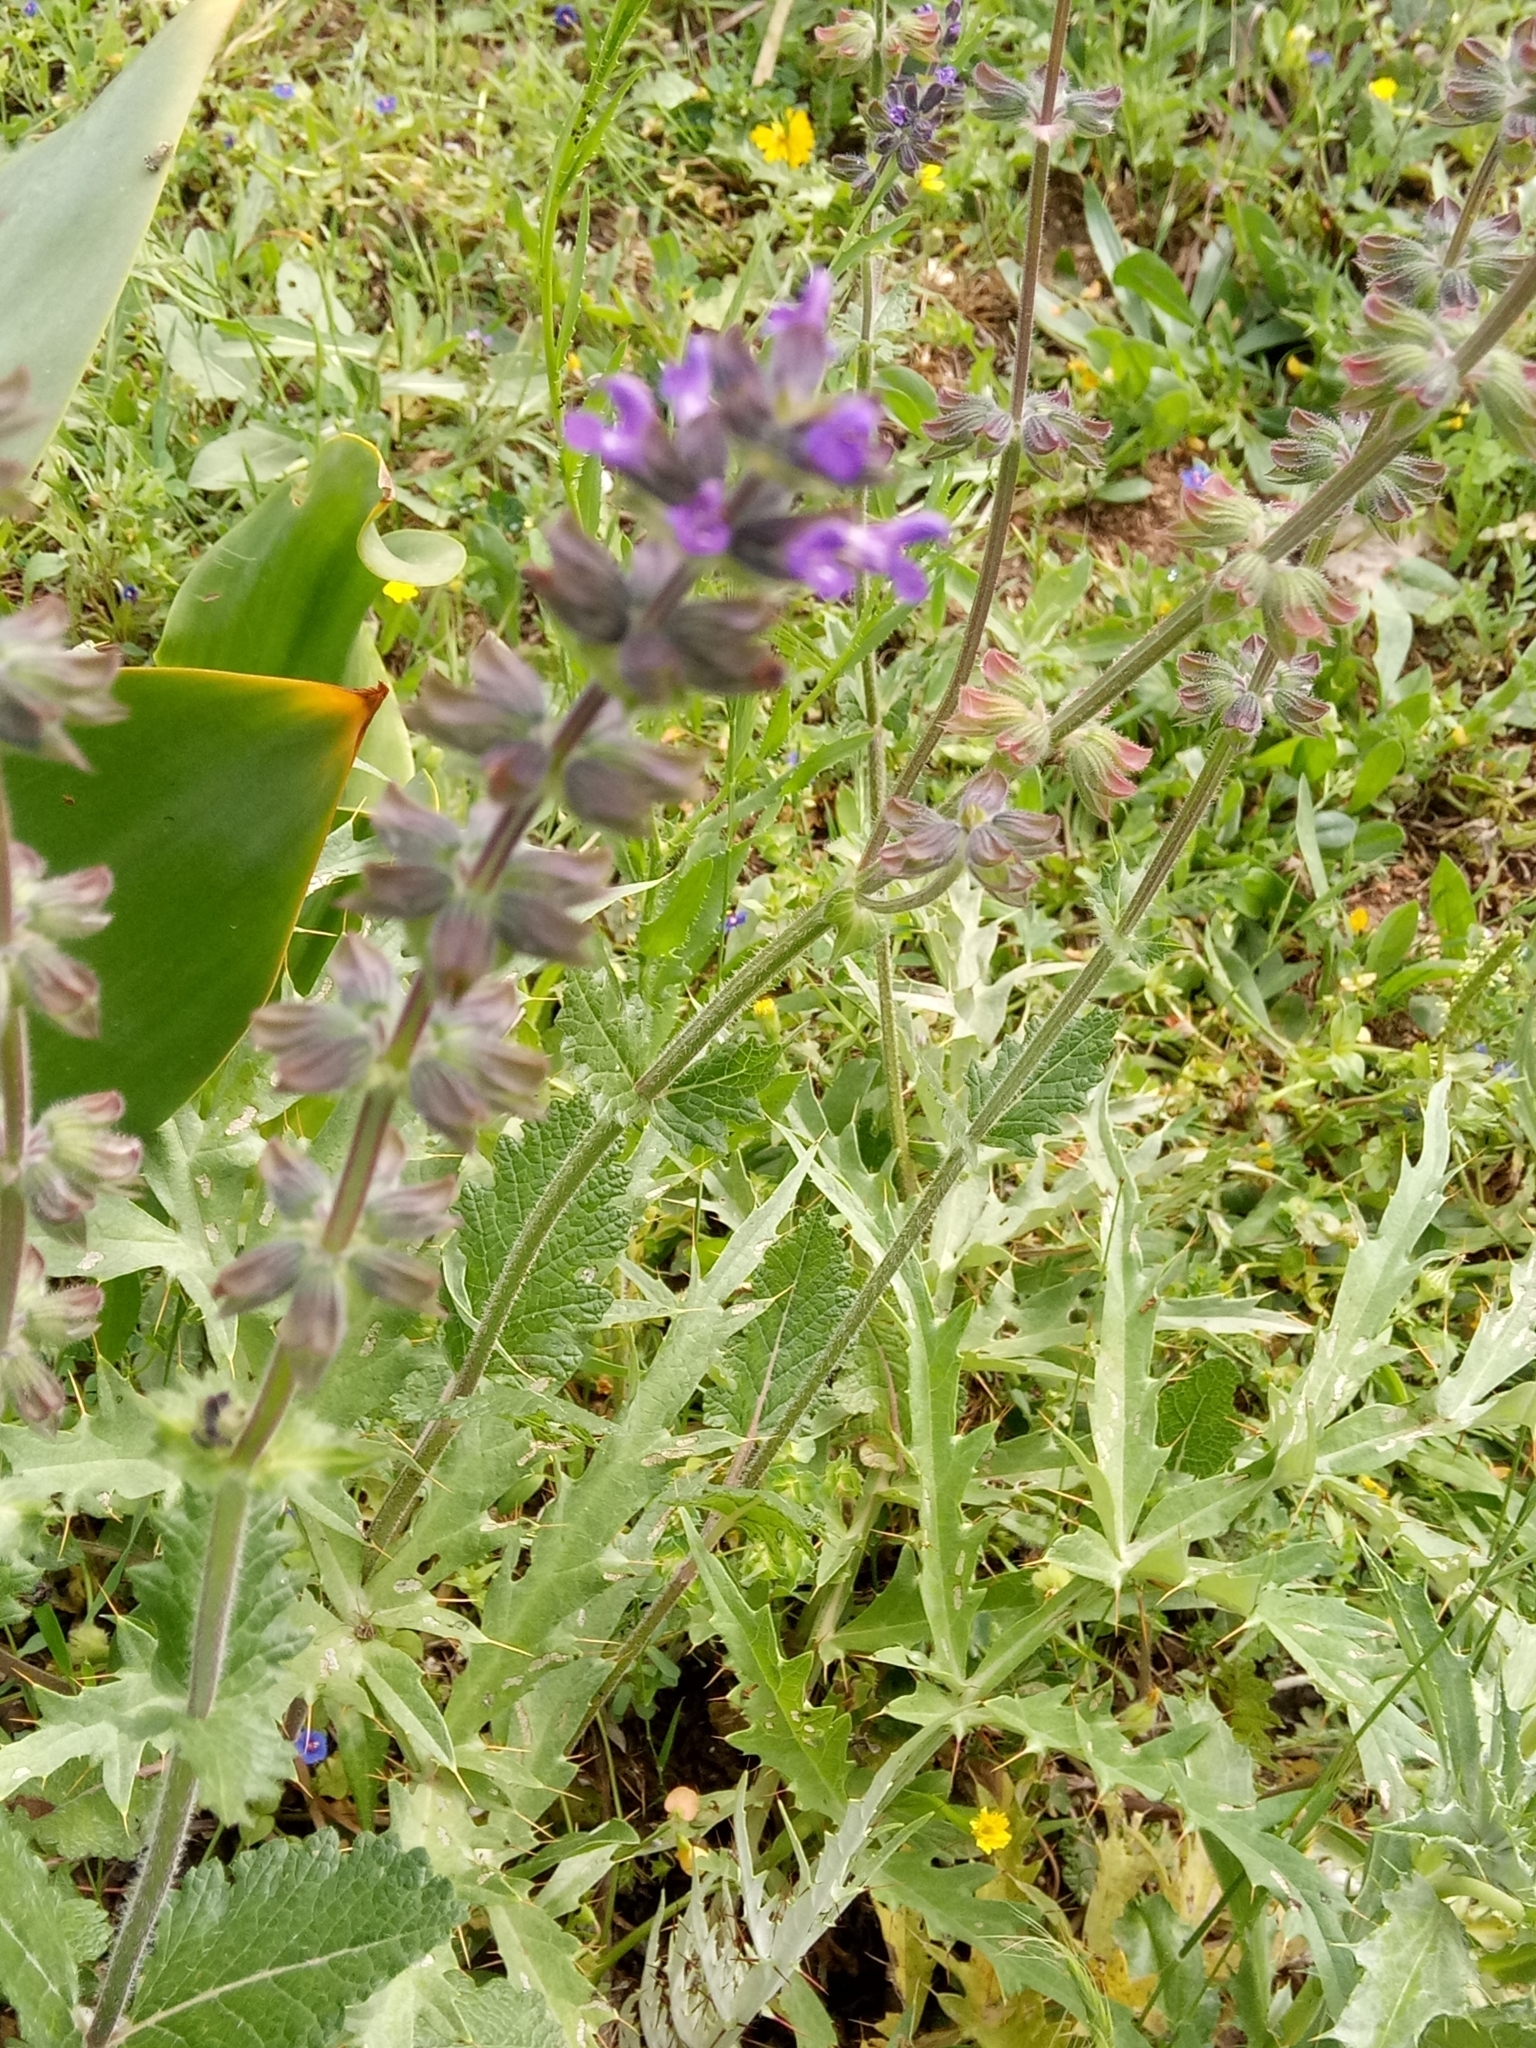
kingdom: Plantae
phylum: Tracheophyta
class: Magnoliopsida
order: Lamiales
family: Lamiaceae
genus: Salvia
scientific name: Salvia verbenaca
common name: Wild clary
